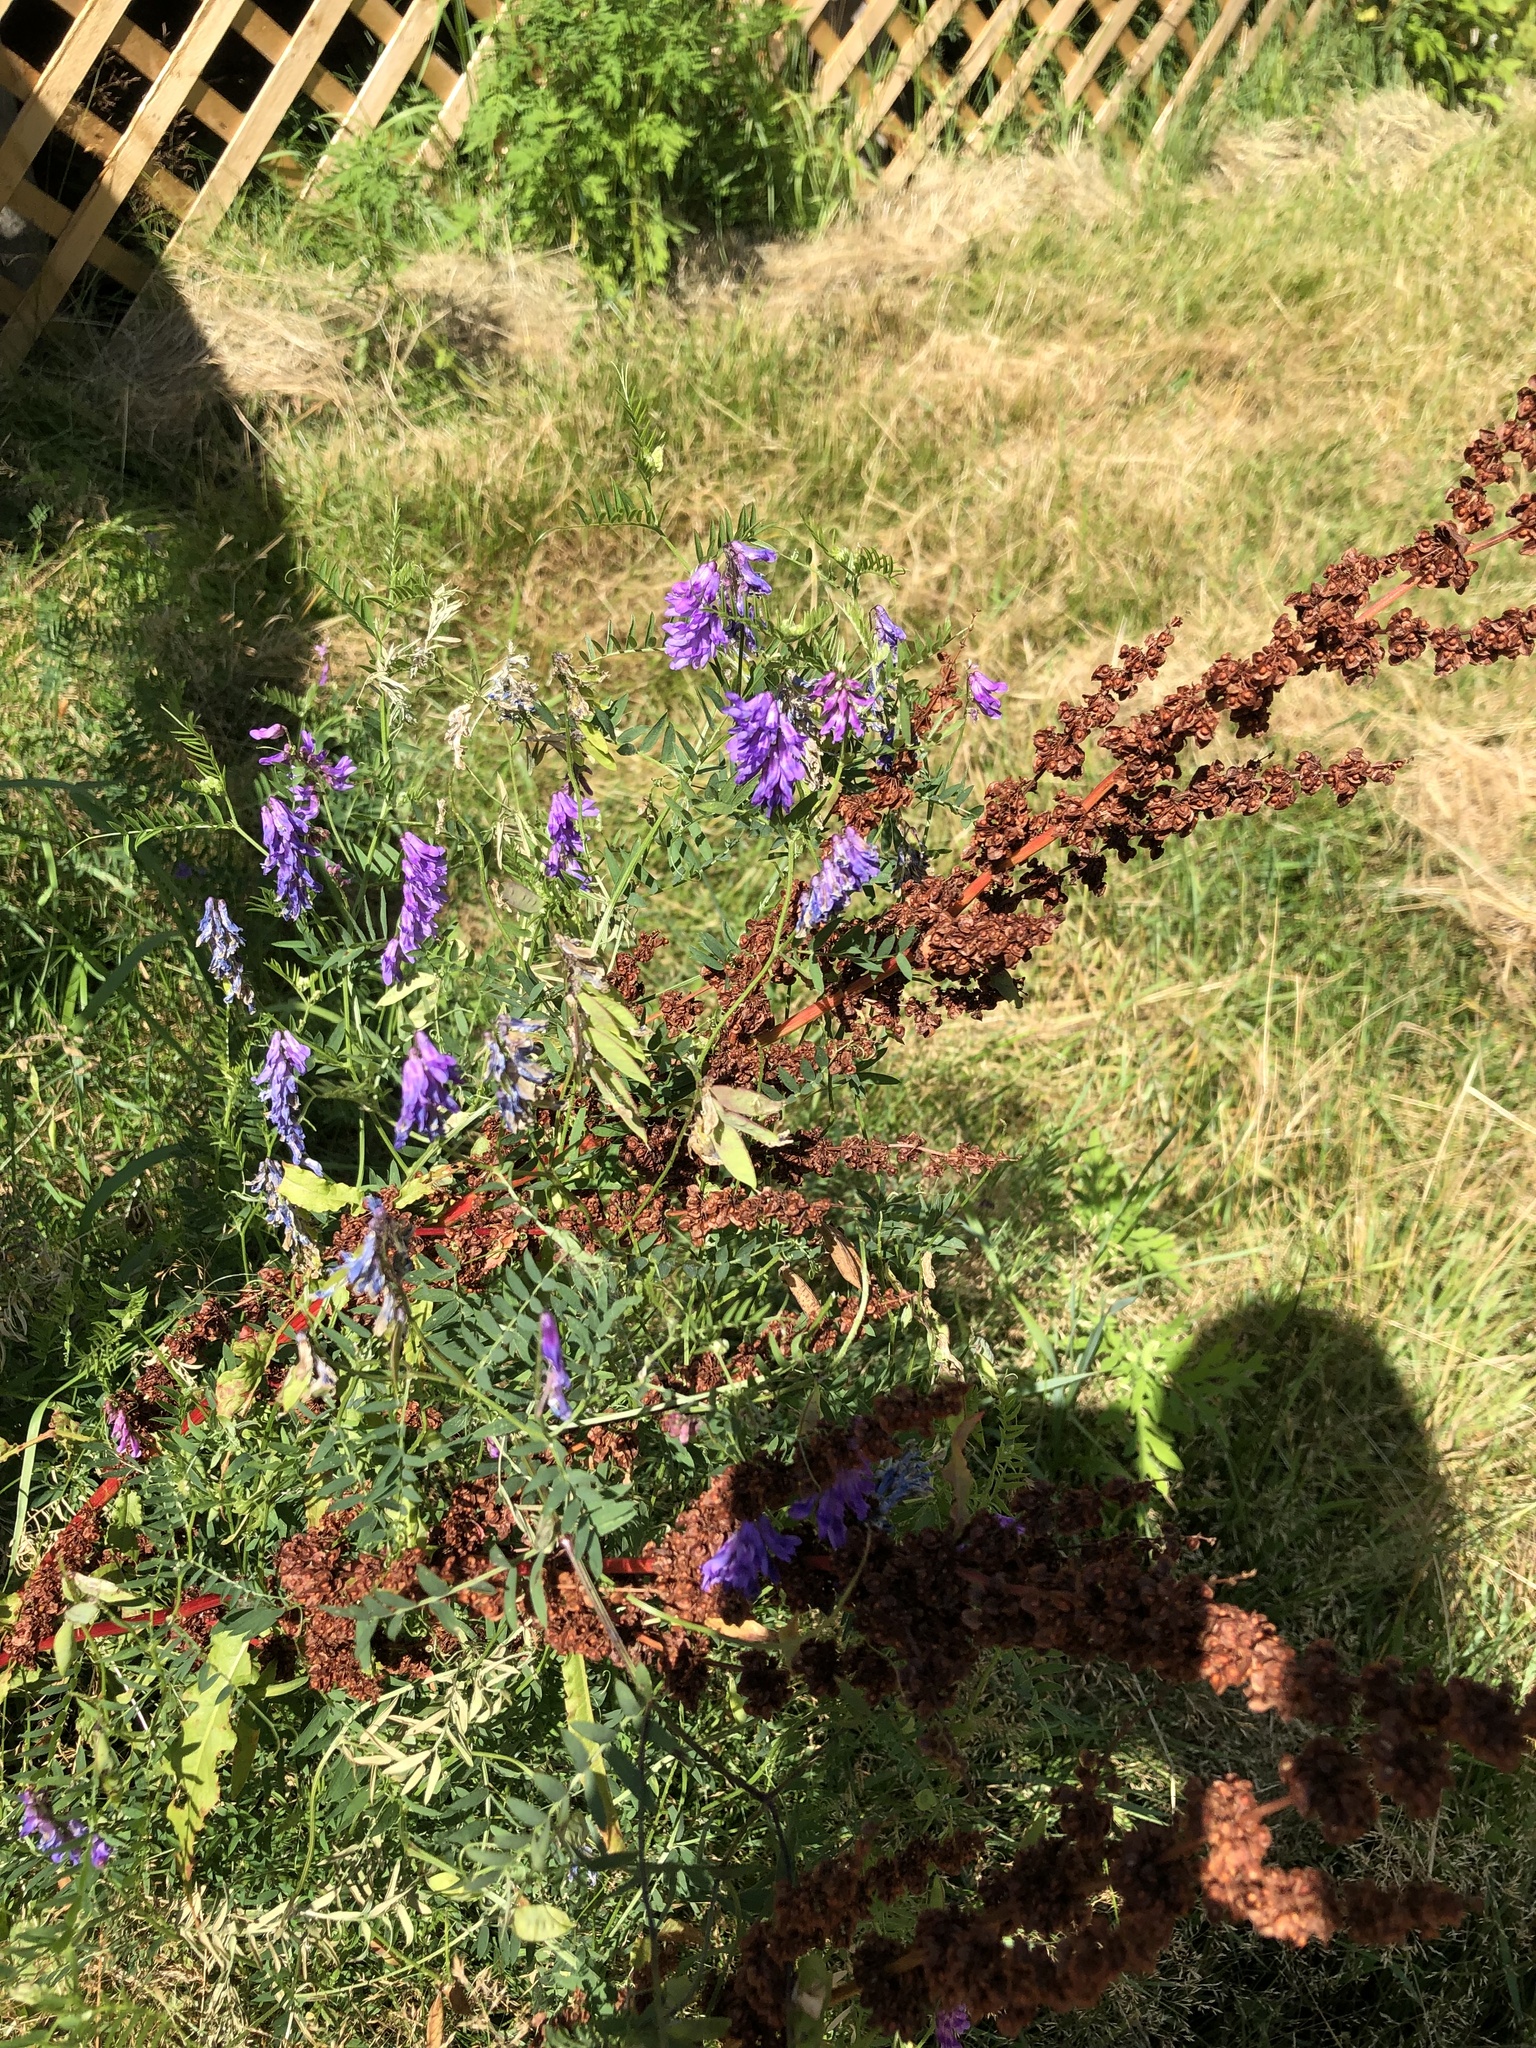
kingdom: Plantae
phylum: Tracheophyta
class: Magnoliopsida
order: Fabales
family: Fabaceae
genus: Vicia
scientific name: Vicia cracca
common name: Bird vetch
